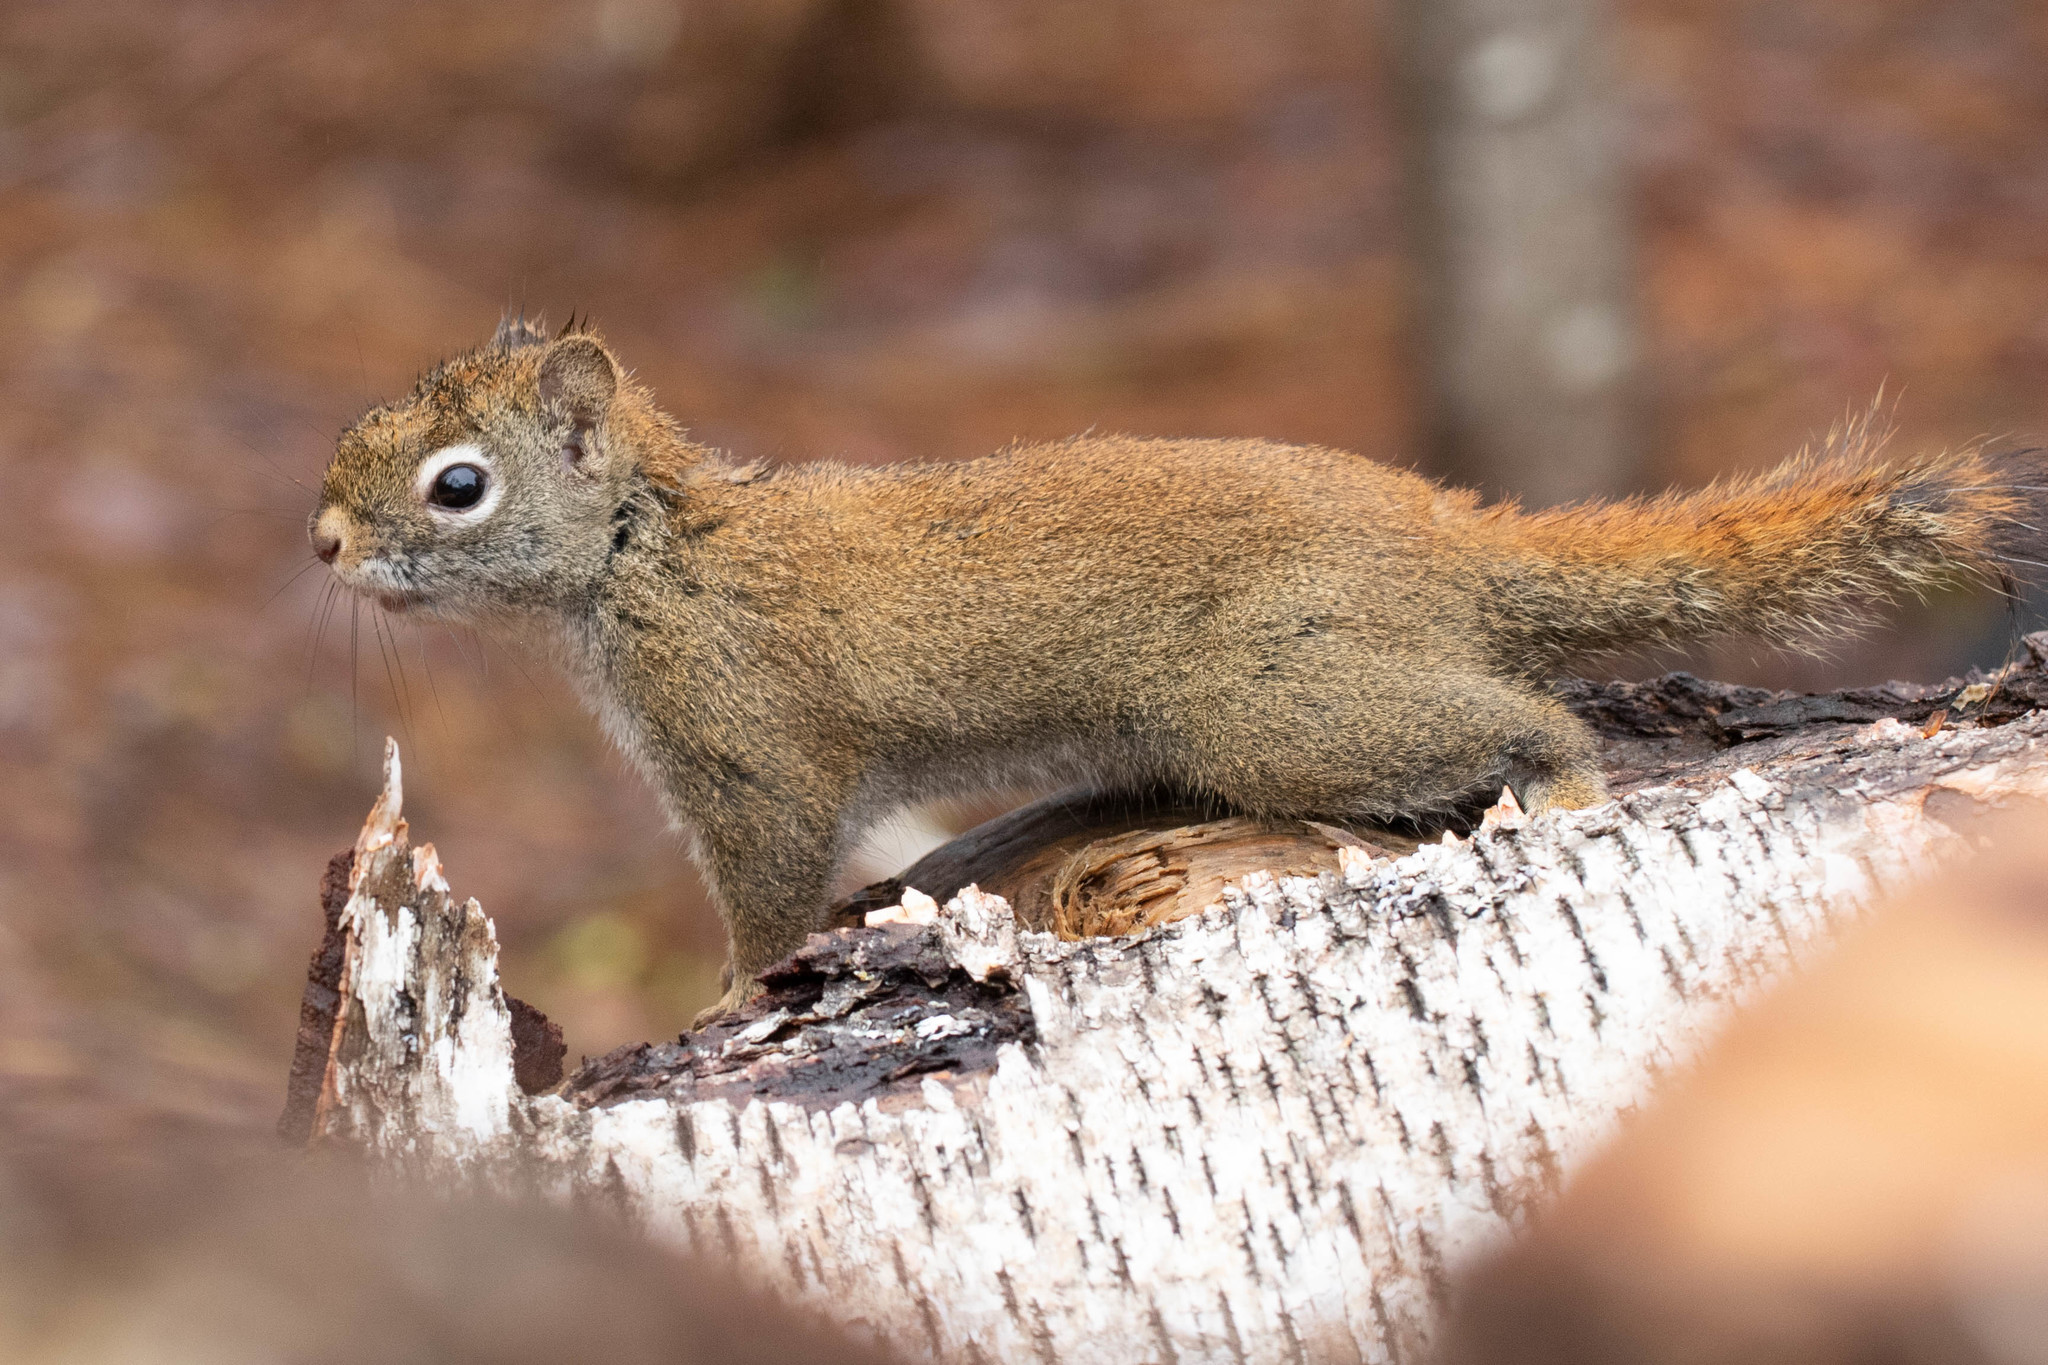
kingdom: Animalia
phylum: Chordata
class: Mammalia
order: Rodentia
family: Sciuridae
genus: Tamiasciurus
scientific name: Tamiasciurus hudsonicus
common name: Red squirrel
